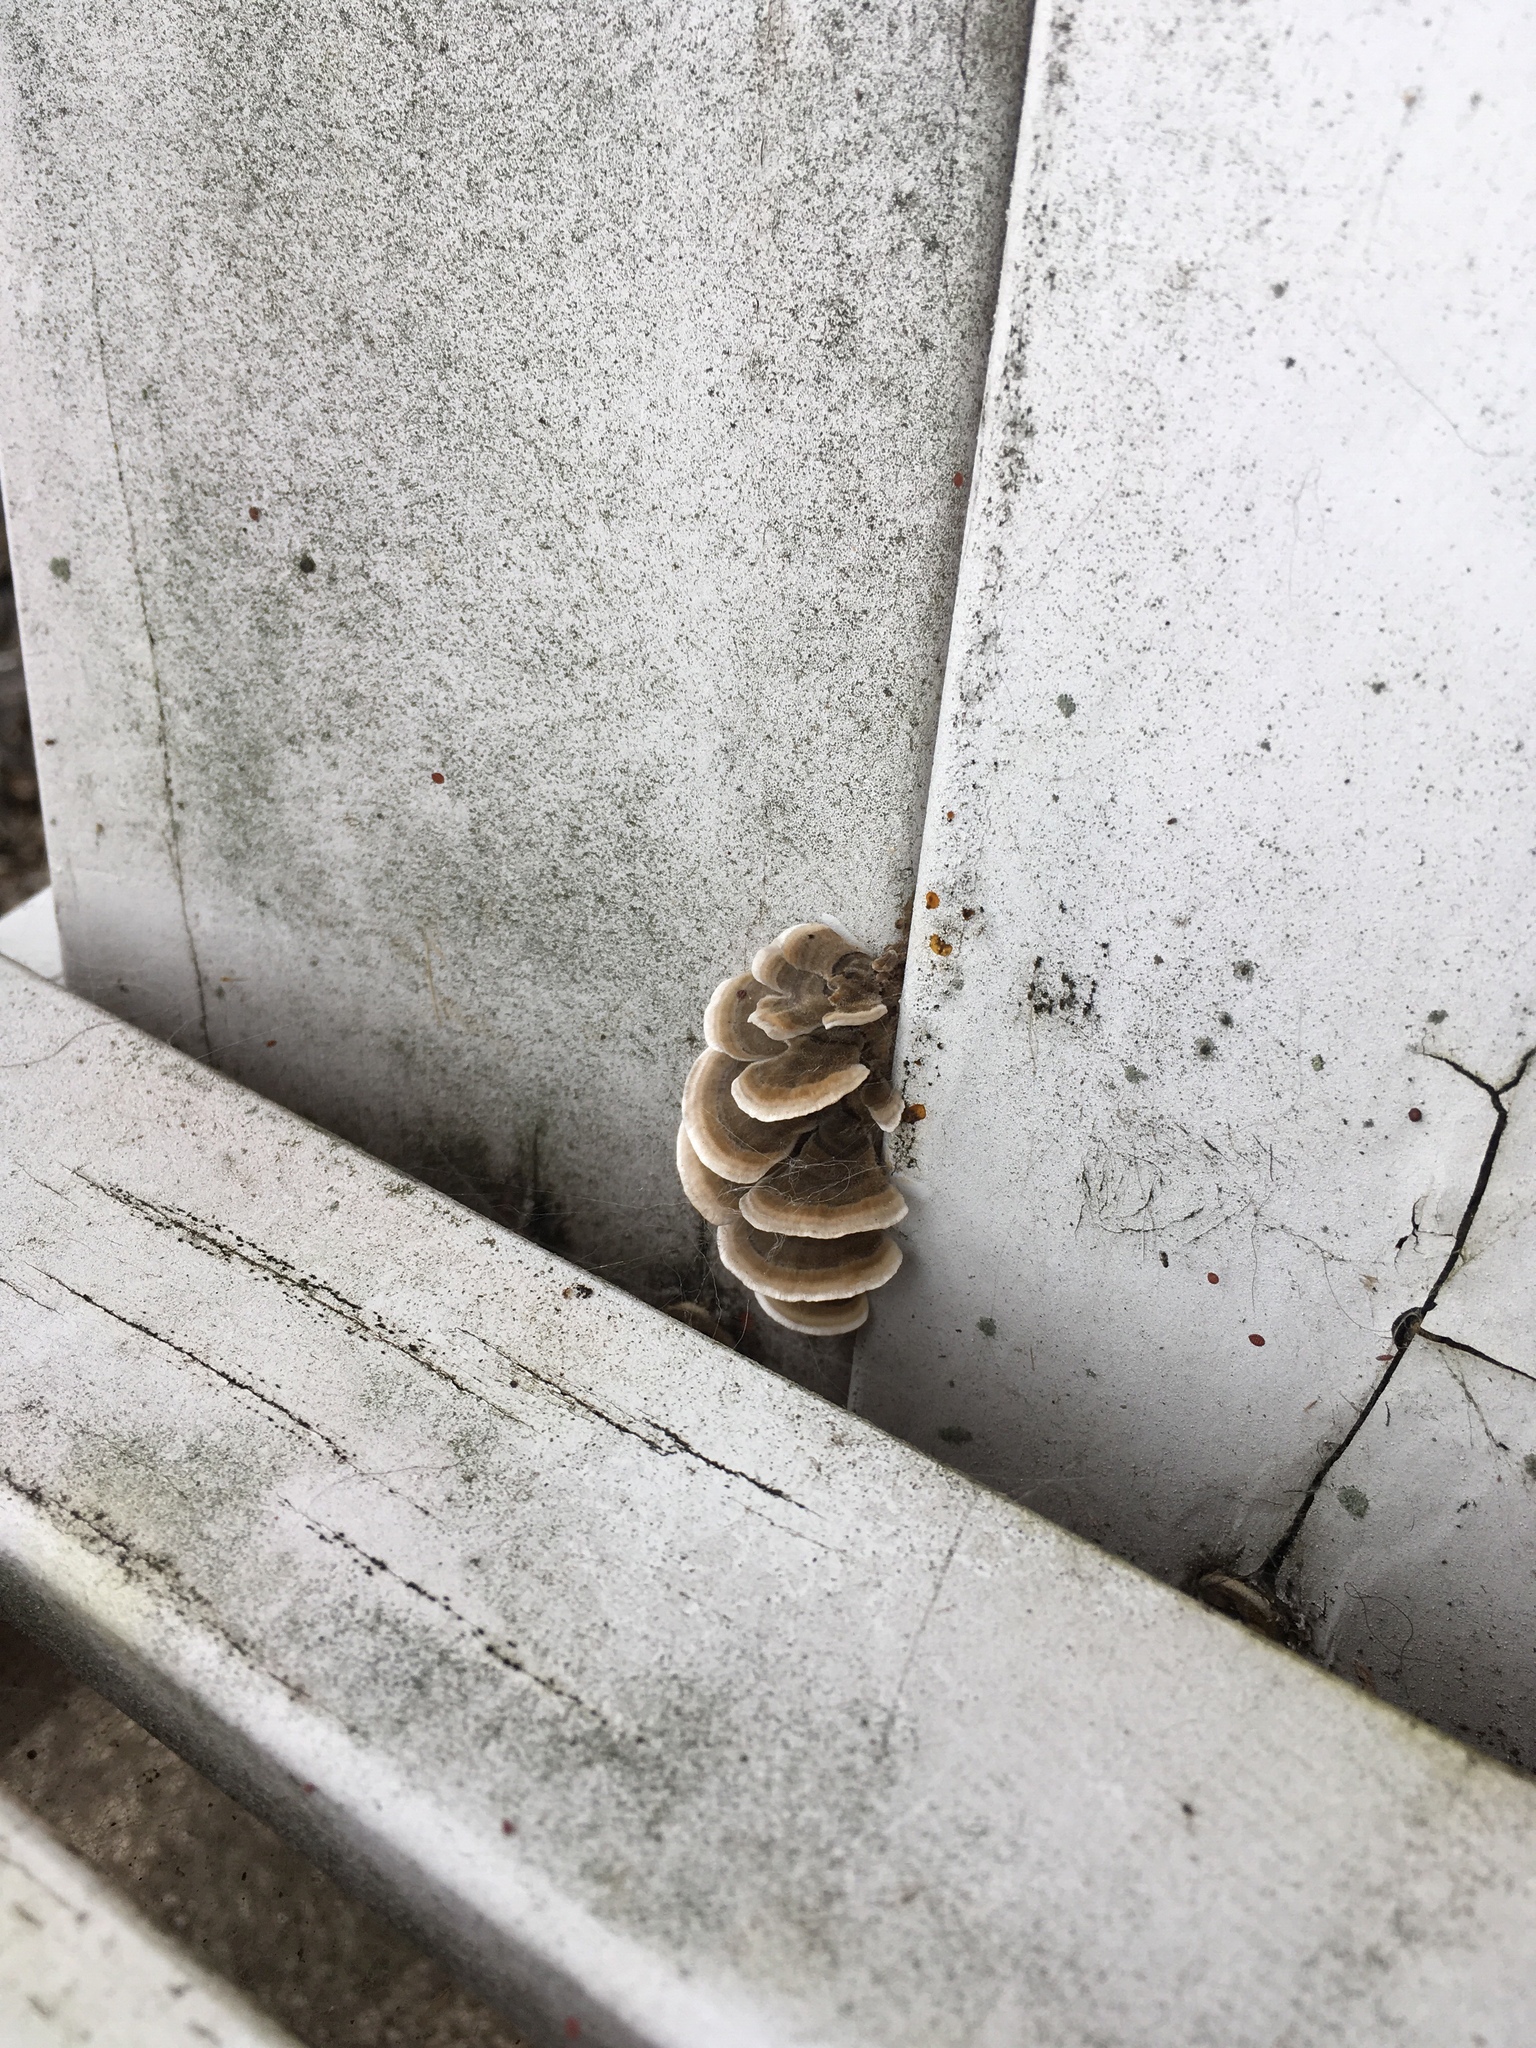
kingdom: Fungi
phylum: Basidiomycota
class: Agaricomycetes
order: Polyporales
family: Polyporaceae
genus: Trametes
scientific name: Trametes versicolor
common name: Turkeytail
